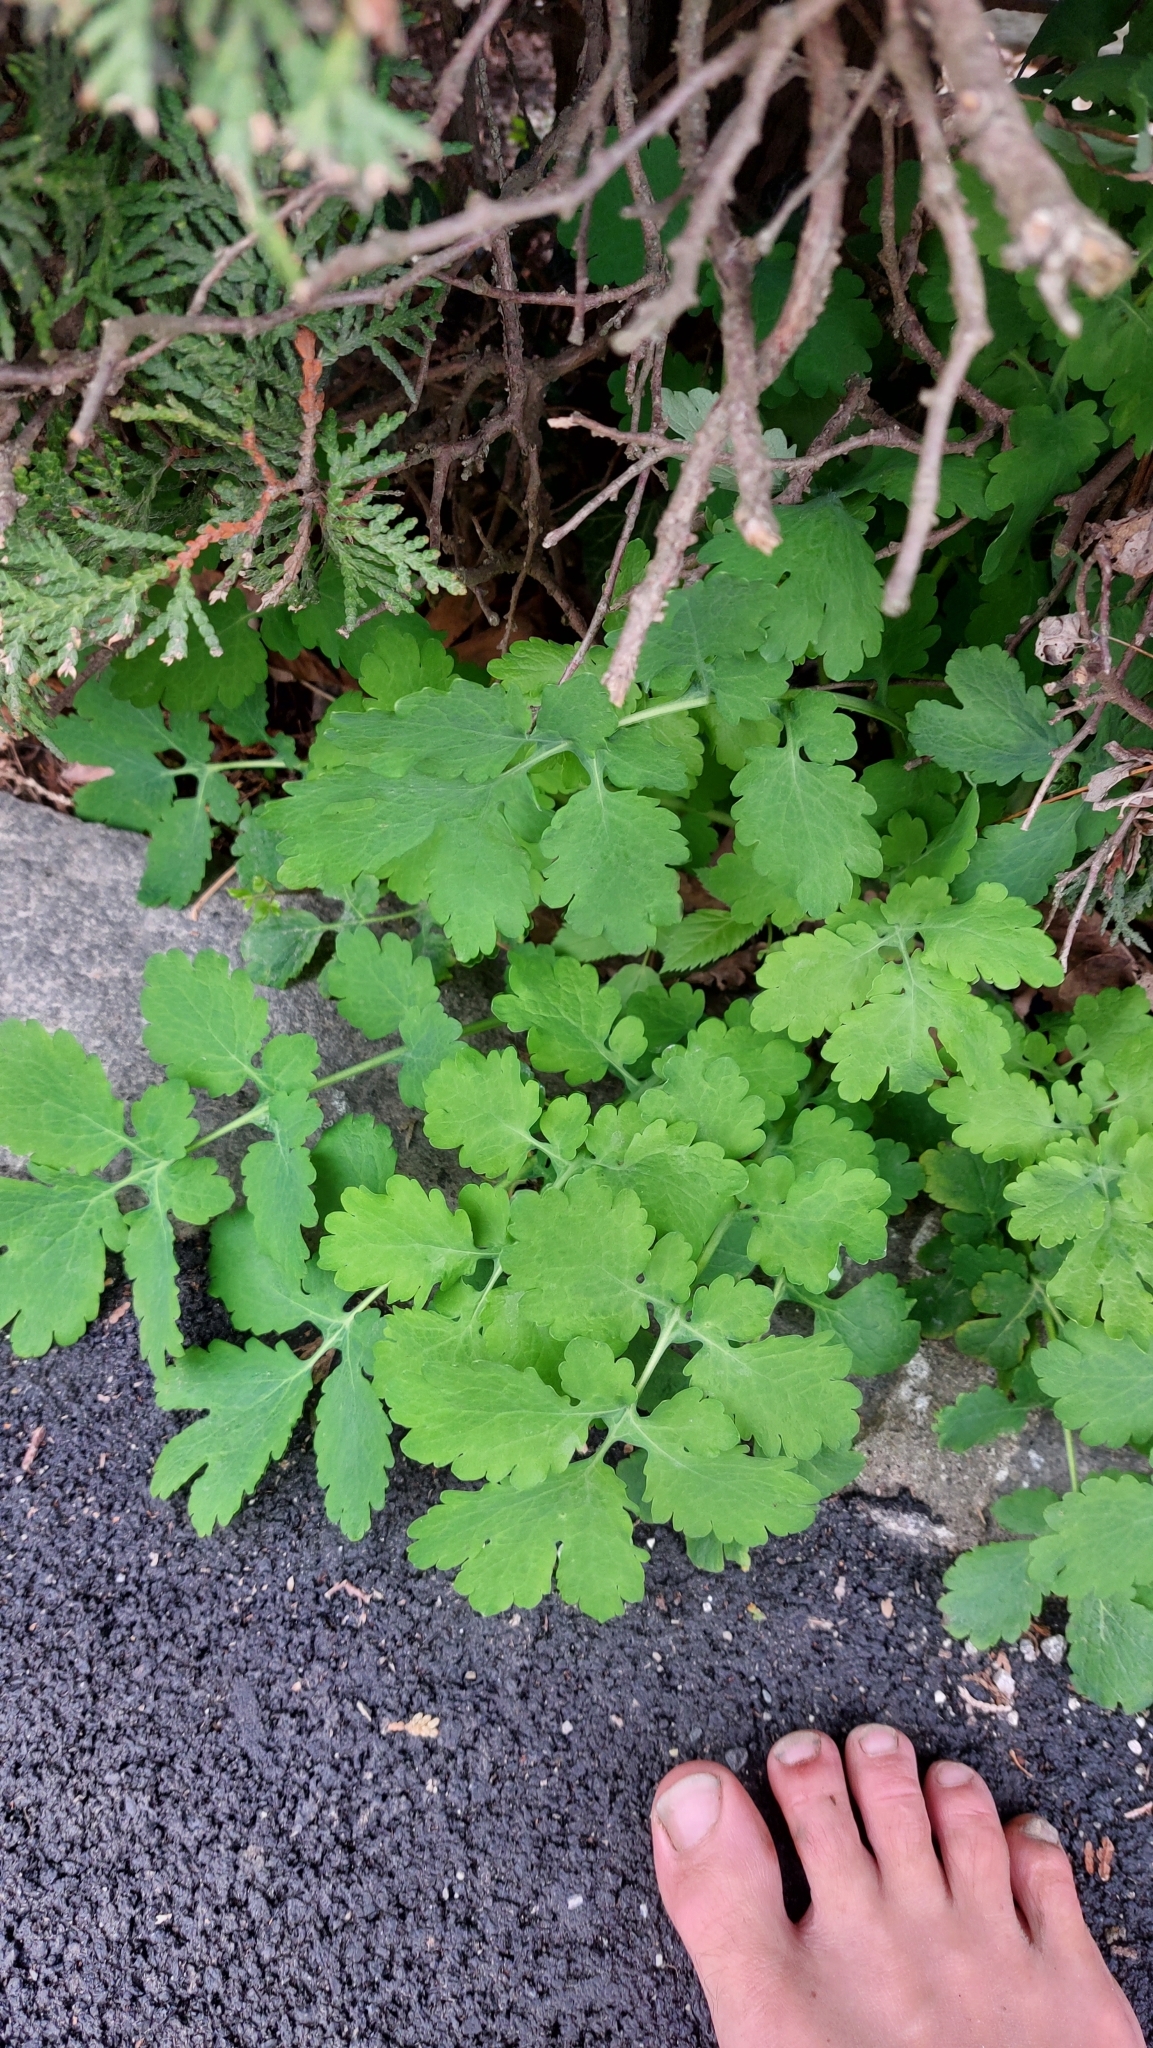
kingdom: Plantae
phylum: Tracheophyta
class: Magnoliopsida
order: Ranunculales
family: Papaveraceae
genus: Chelidonium
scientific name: Chelidonium majus
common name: Greater celandine
